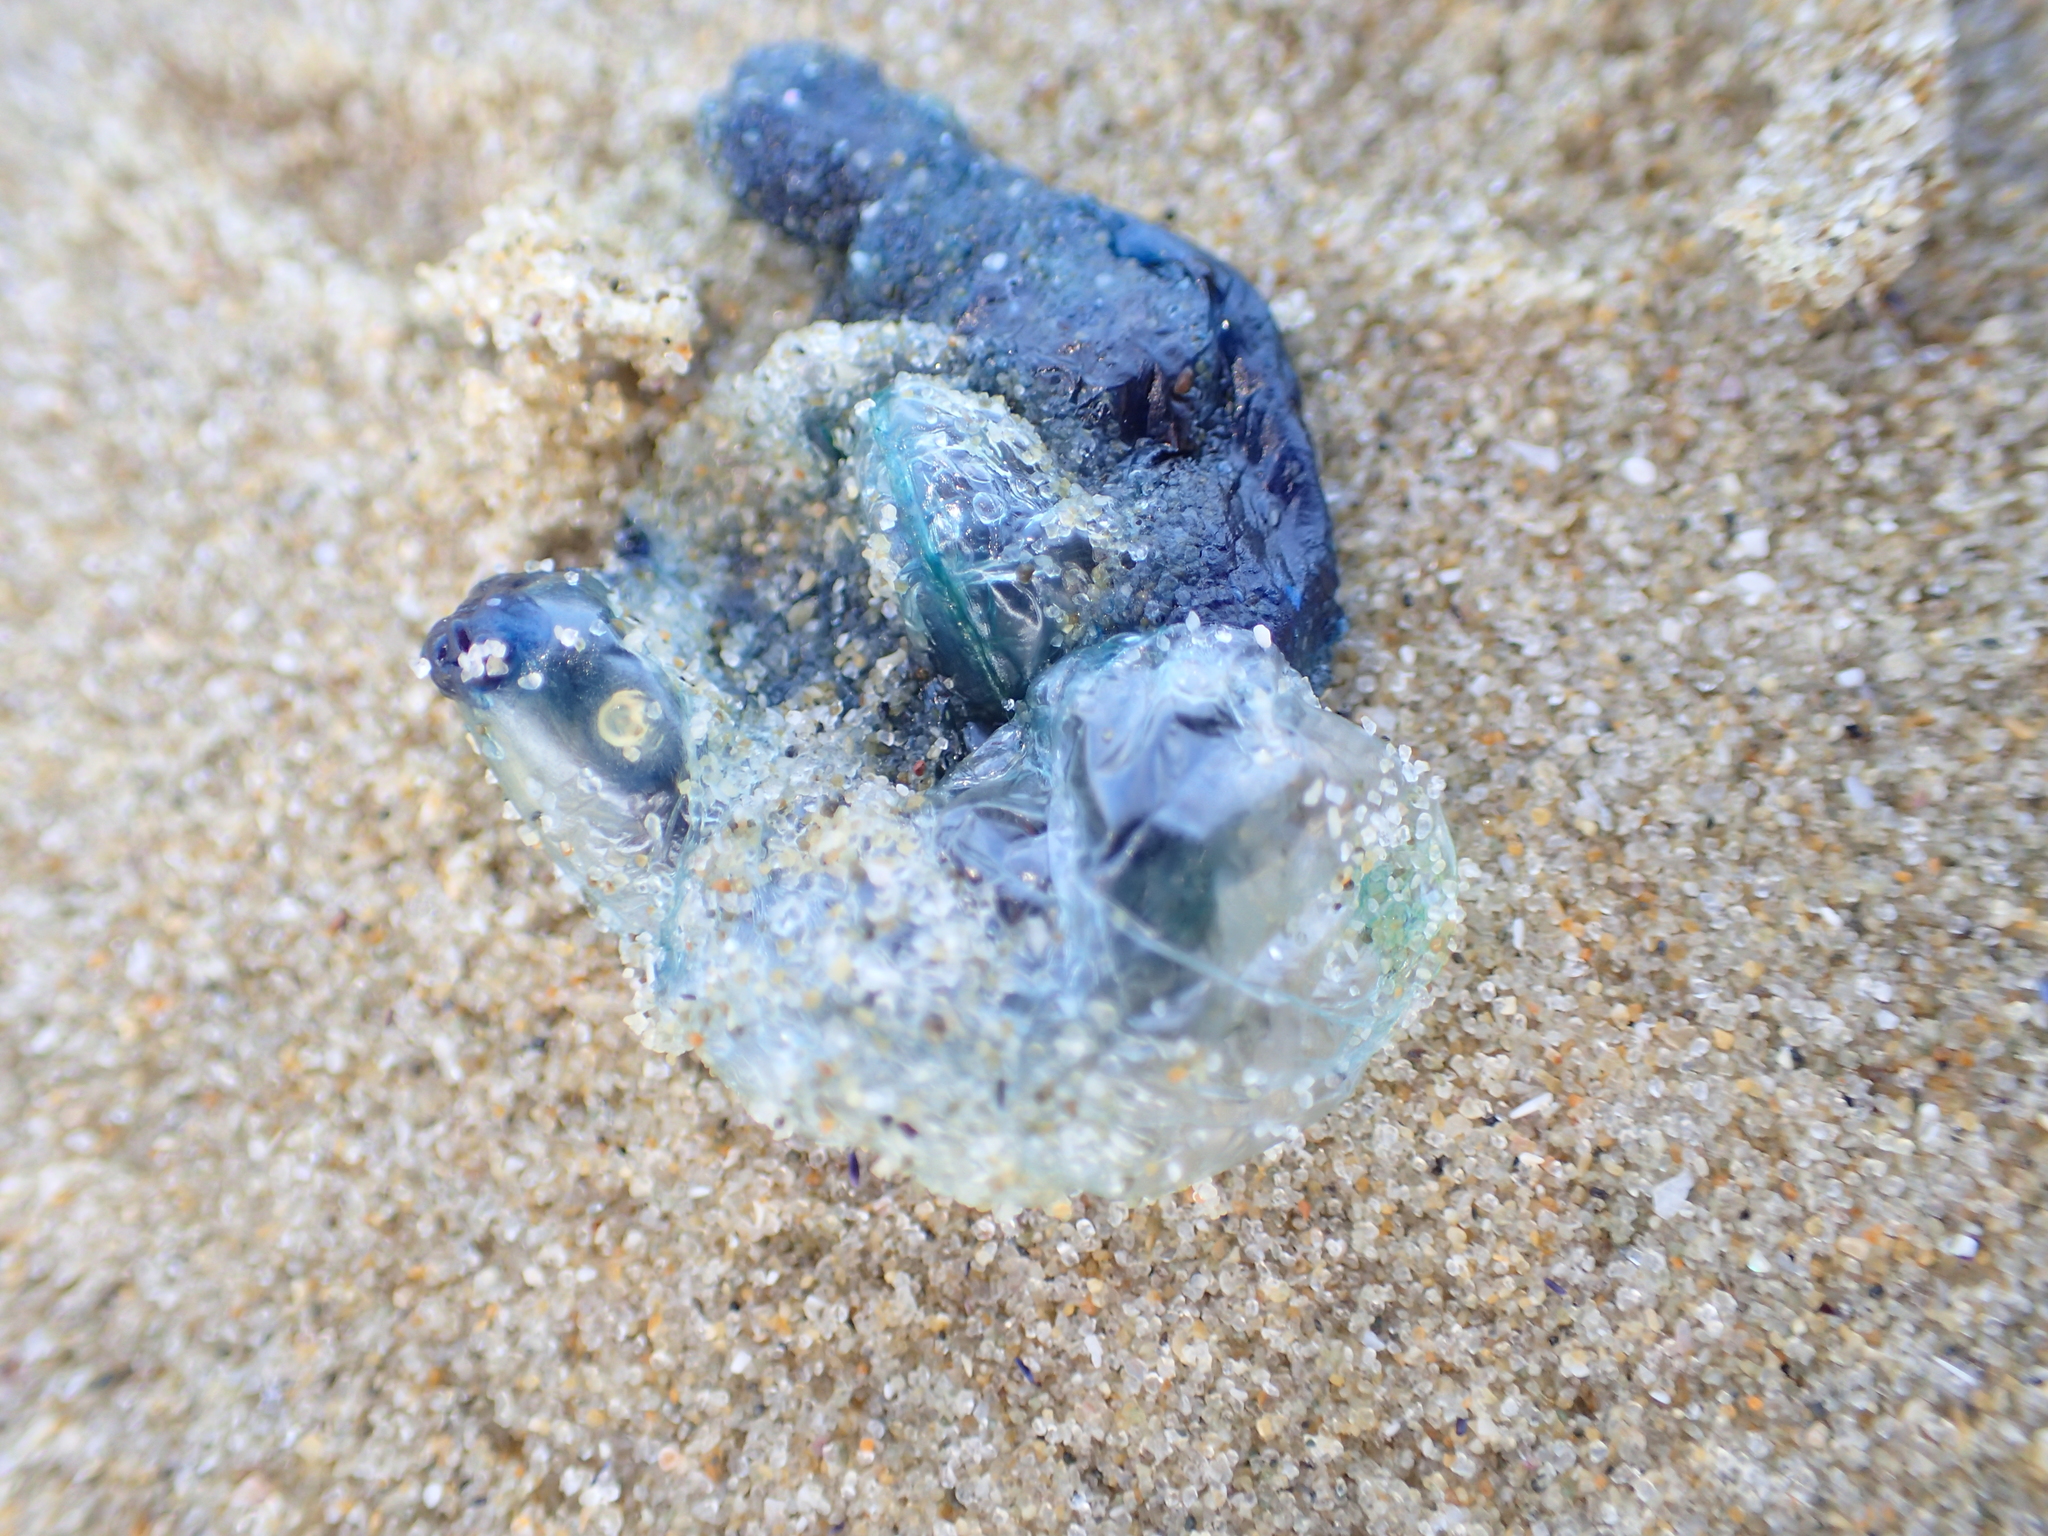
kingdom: Animalia
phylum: Cnidaria
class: Hydrozoa
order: Siphonophorae
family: Physaliidae
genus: Physalia
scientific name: Physalia
